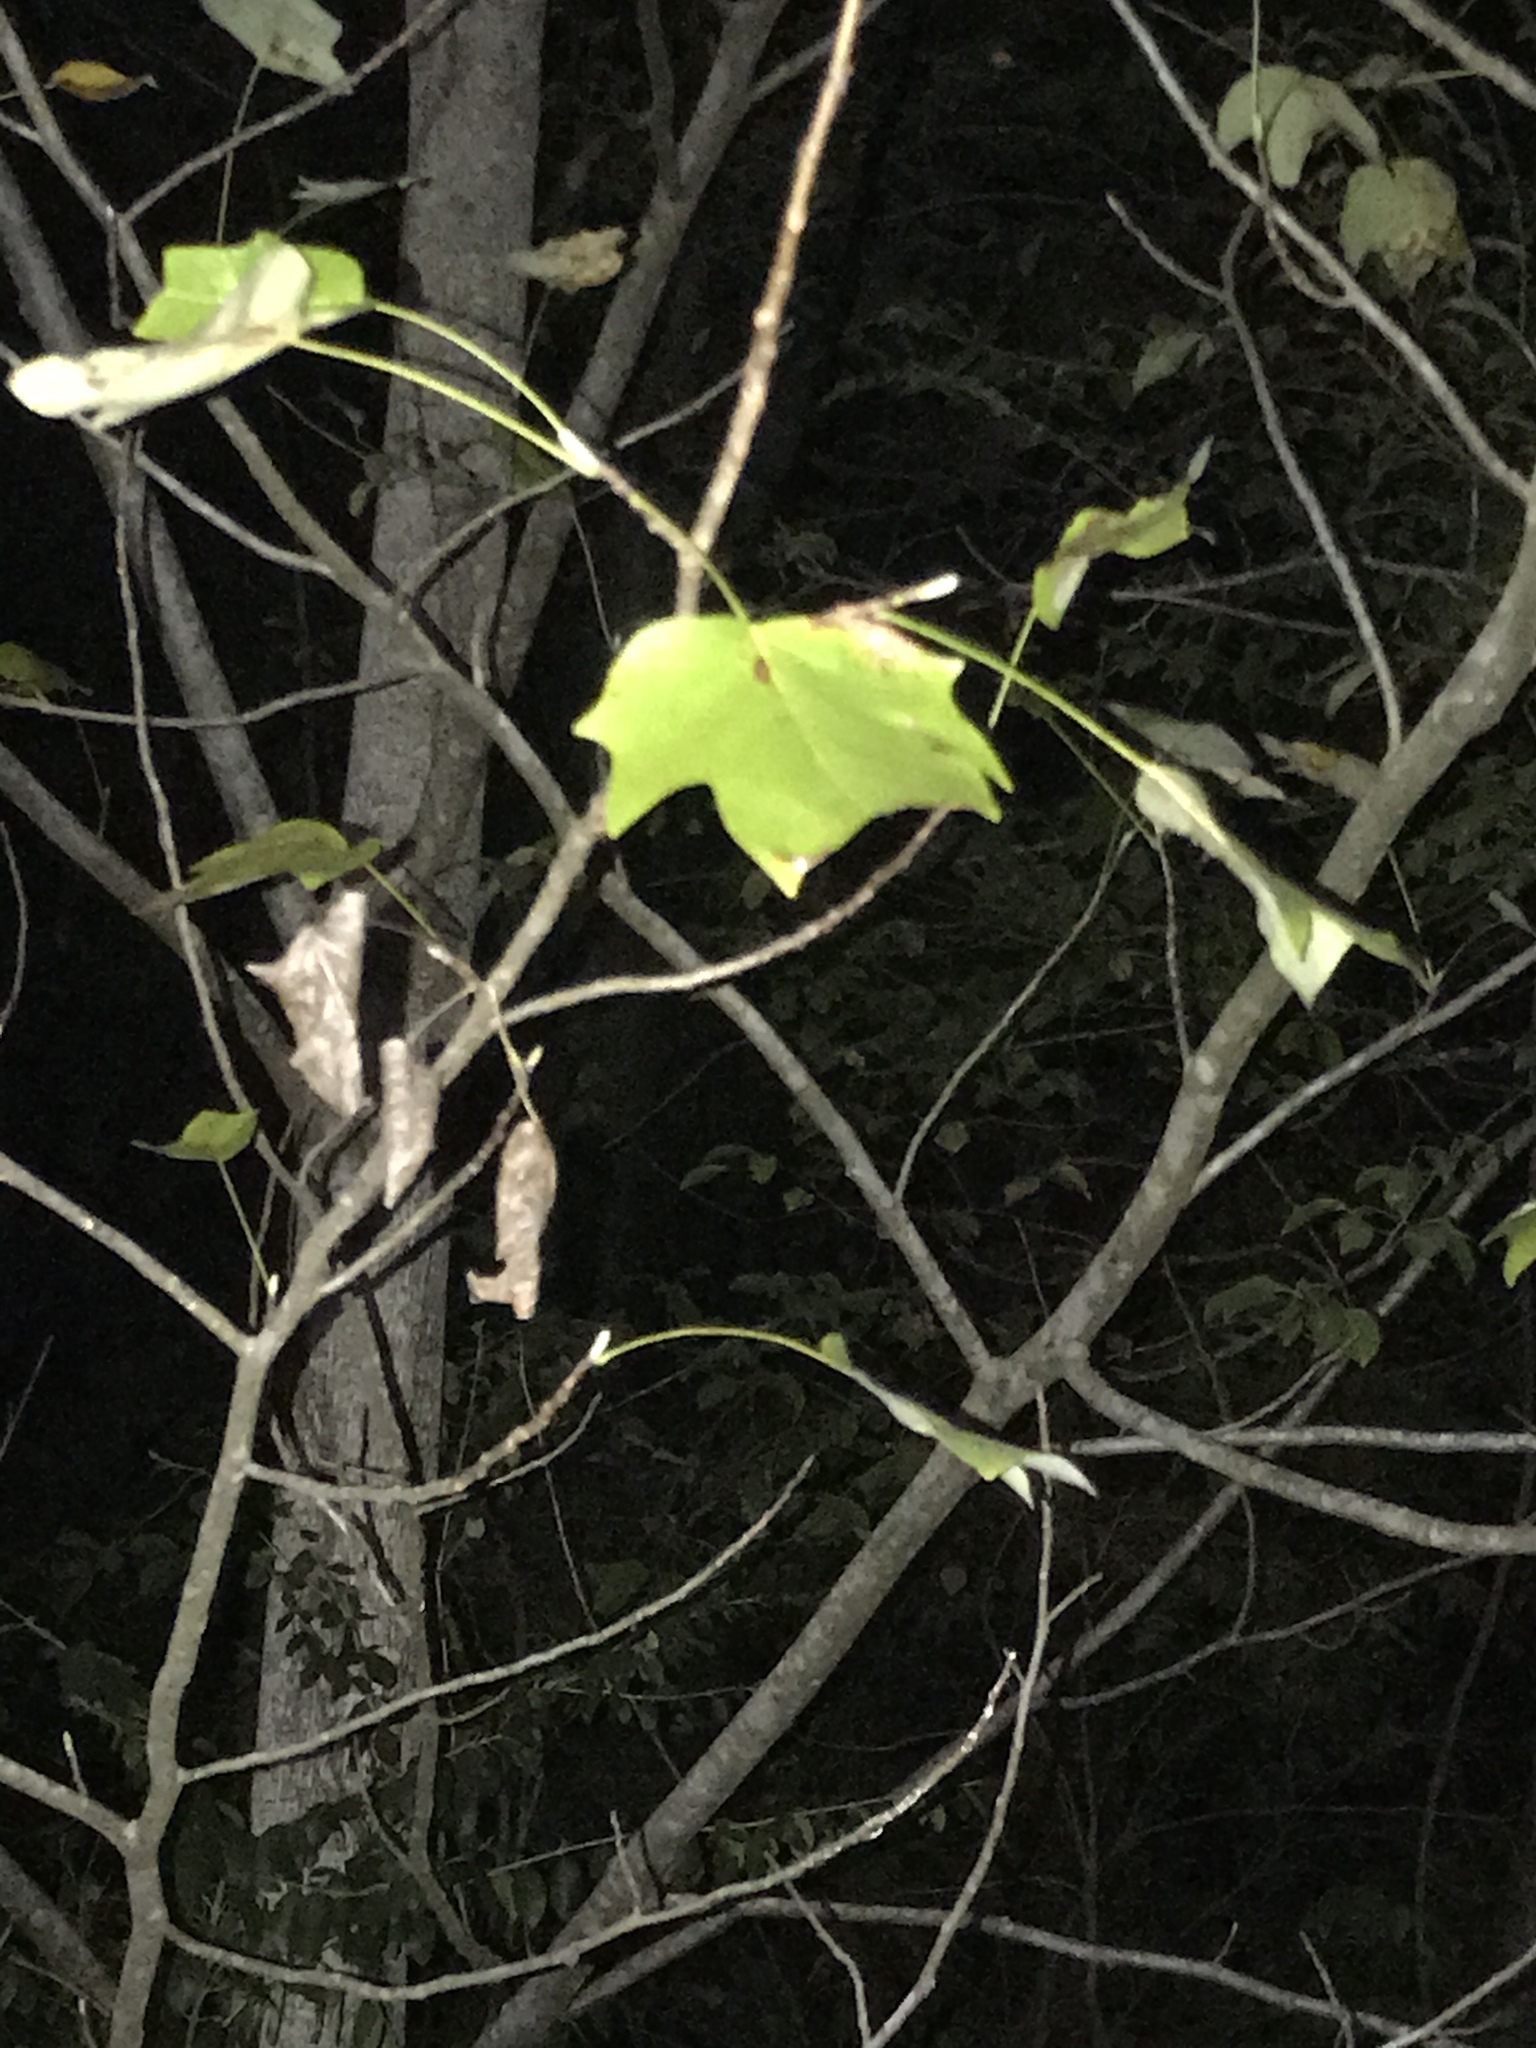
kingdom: Plantae
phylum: Tracheophyta
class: Magnoliopsida
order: Magnoliales
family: Magnoliaceae
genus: Liriodendron
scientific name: Liriodendron tulipifera
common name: Tulip tree
